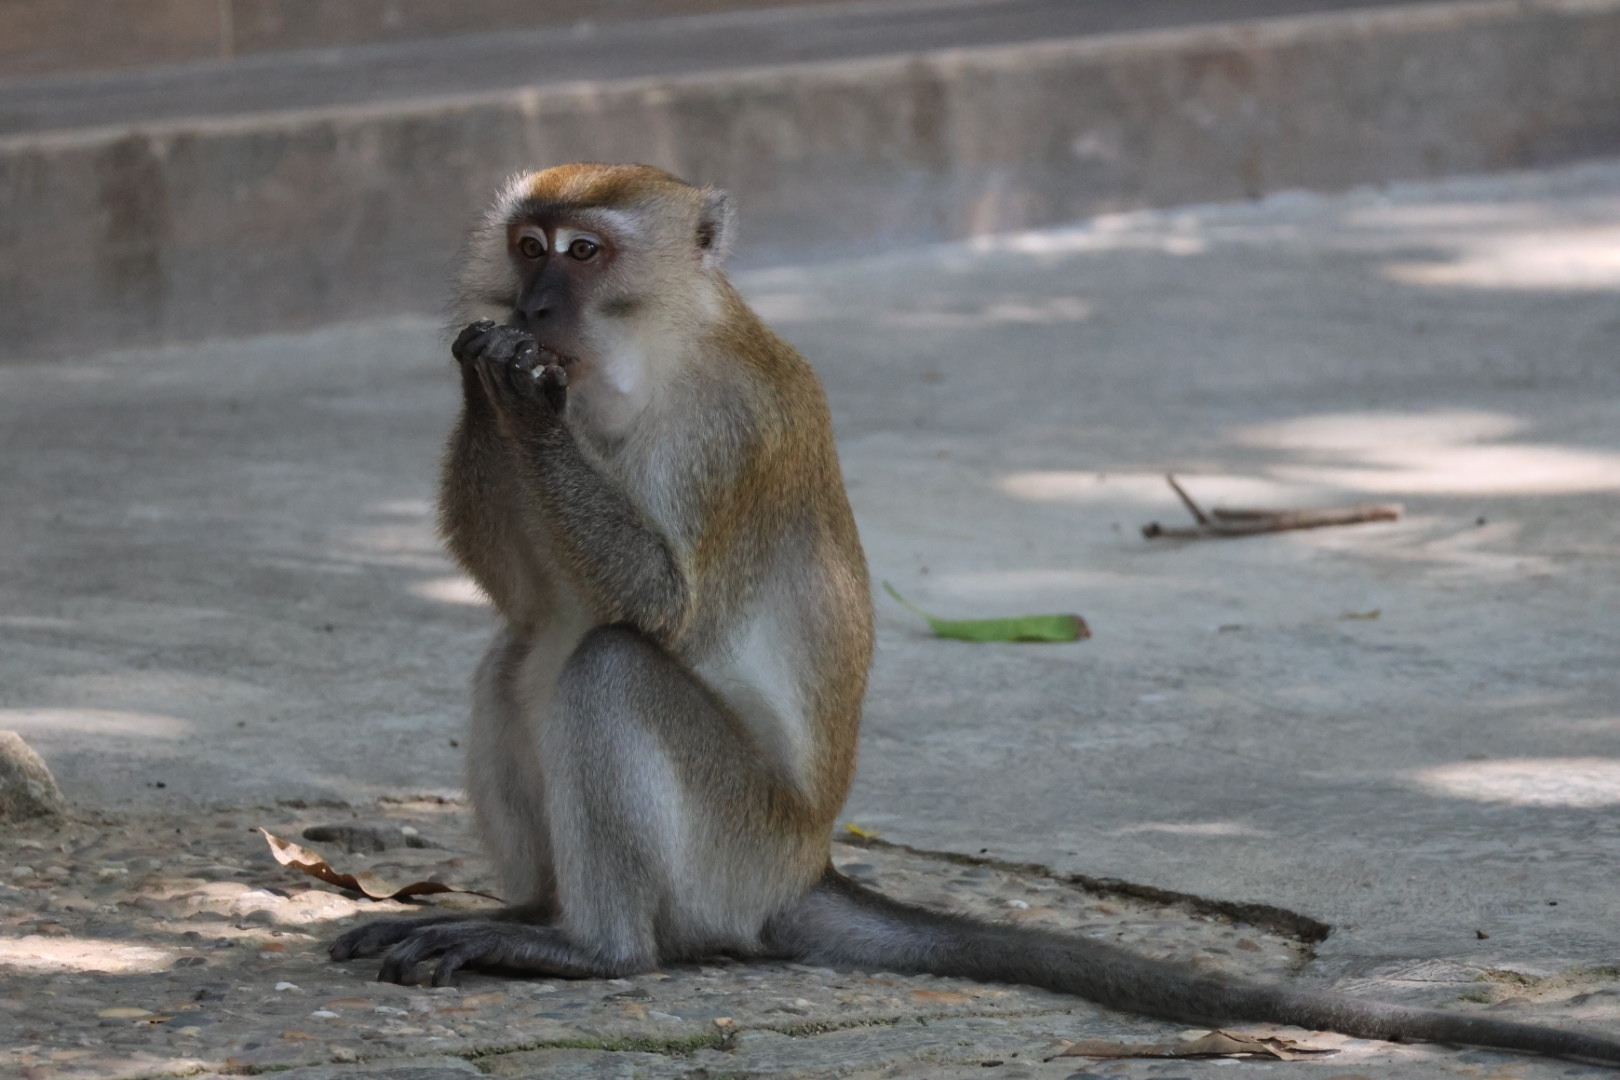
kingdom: Animalia
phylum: Chordata
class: Mammalia
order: Primates
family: Cercopithecidae
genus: Macaca
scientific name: Macaca fascicularis
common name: Crab-eating macaque
